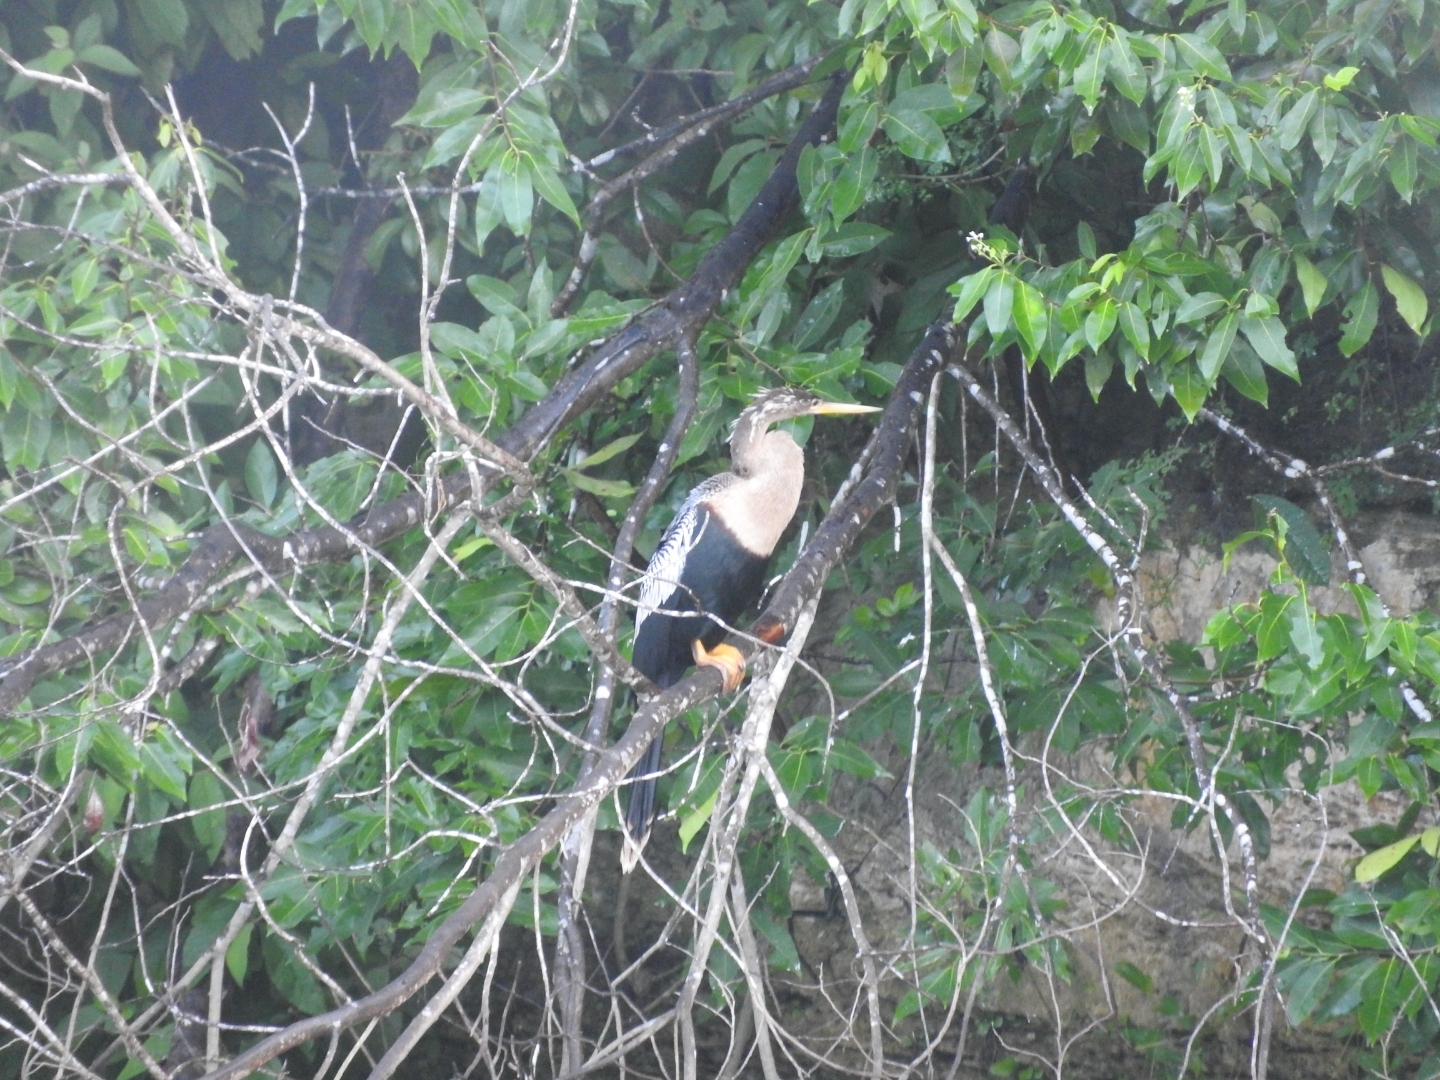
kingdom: Animalia
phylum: Chordata
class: Aves
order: Suliformes
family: Anhingidae
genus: Anhinga
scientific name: Anhinga anhinga
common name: Anhinga
